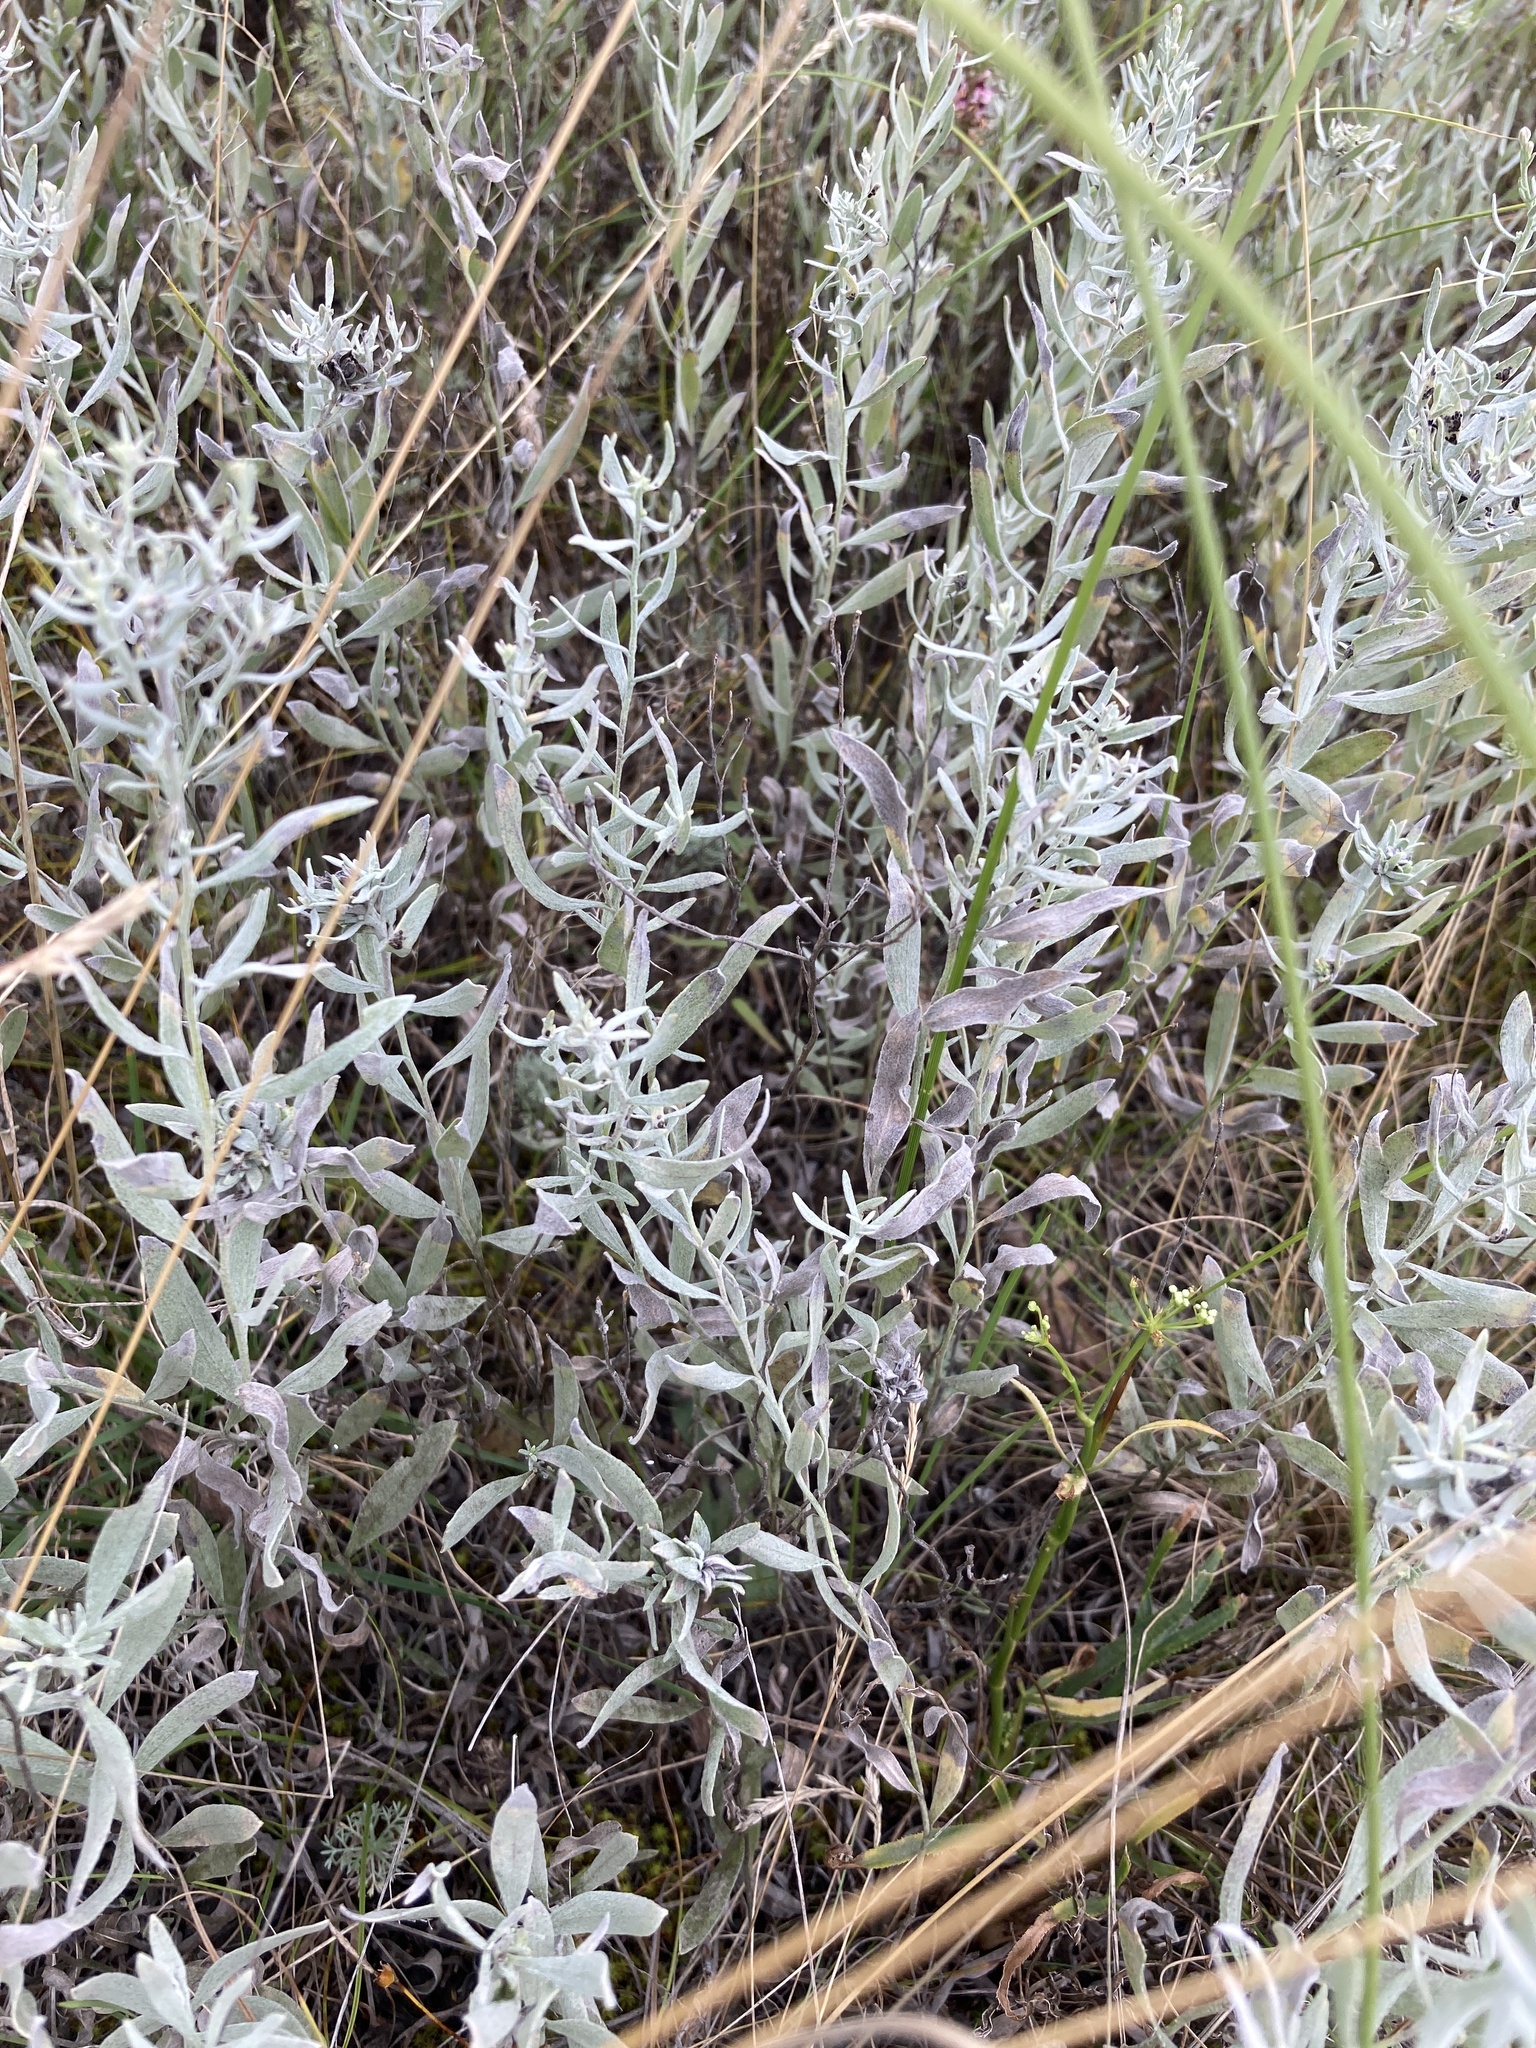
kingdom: Plantae
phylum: Tracheophyta
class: Magnoliopsida
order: Asterales
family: Asteraceae
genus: Galatella
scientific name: Galatella villosa
